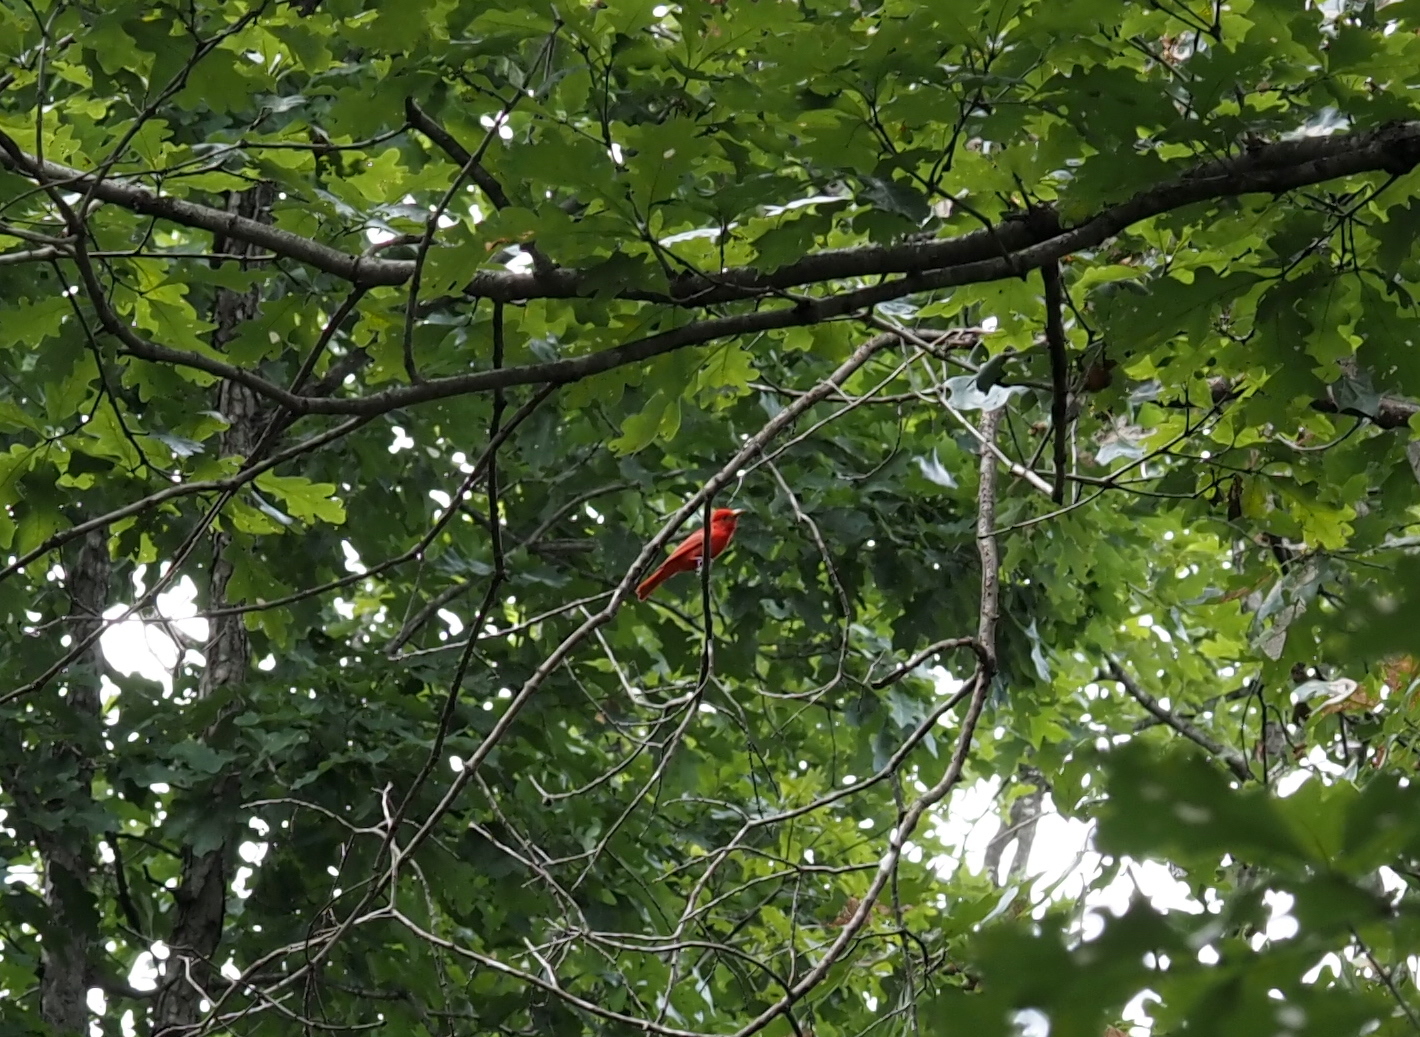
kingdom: Animalia
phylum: Chordata
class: Aves
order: Passeriformes
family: Cardinalidae
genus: Piranga
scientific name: Piranga rubra
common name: Summer tanager
